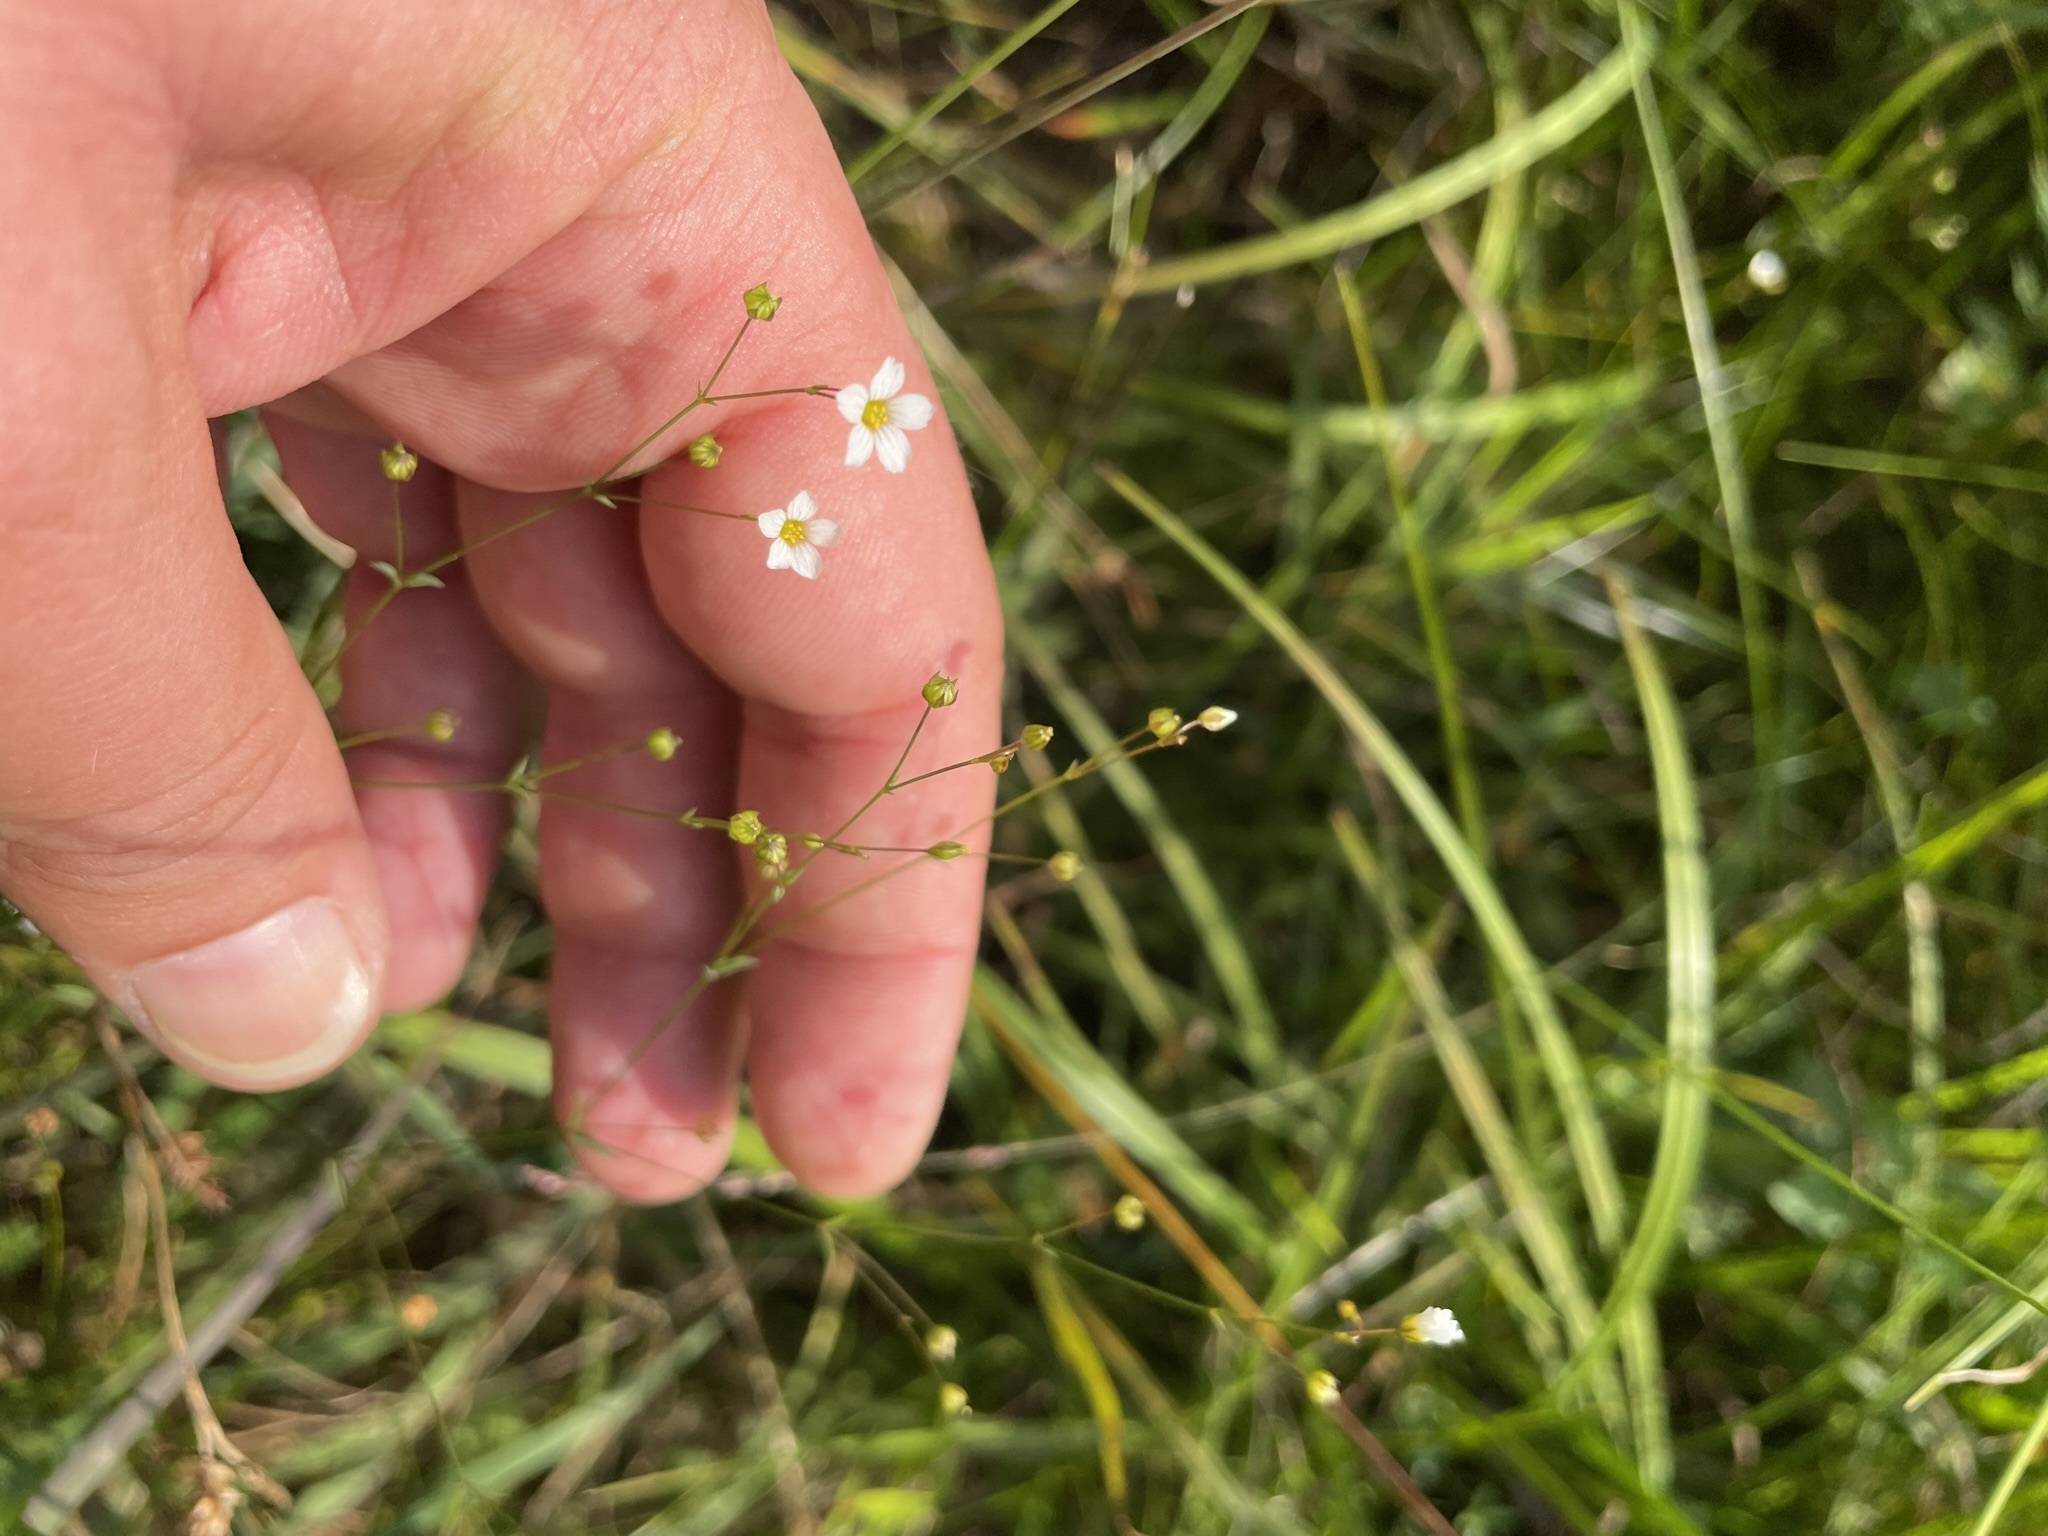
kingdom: Plantae
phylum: Tracheophyta
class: Magnoliopsida
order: Malpighiales
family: Linaceae
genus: Linum
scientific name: Linum catharticum
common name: Fairy flax
